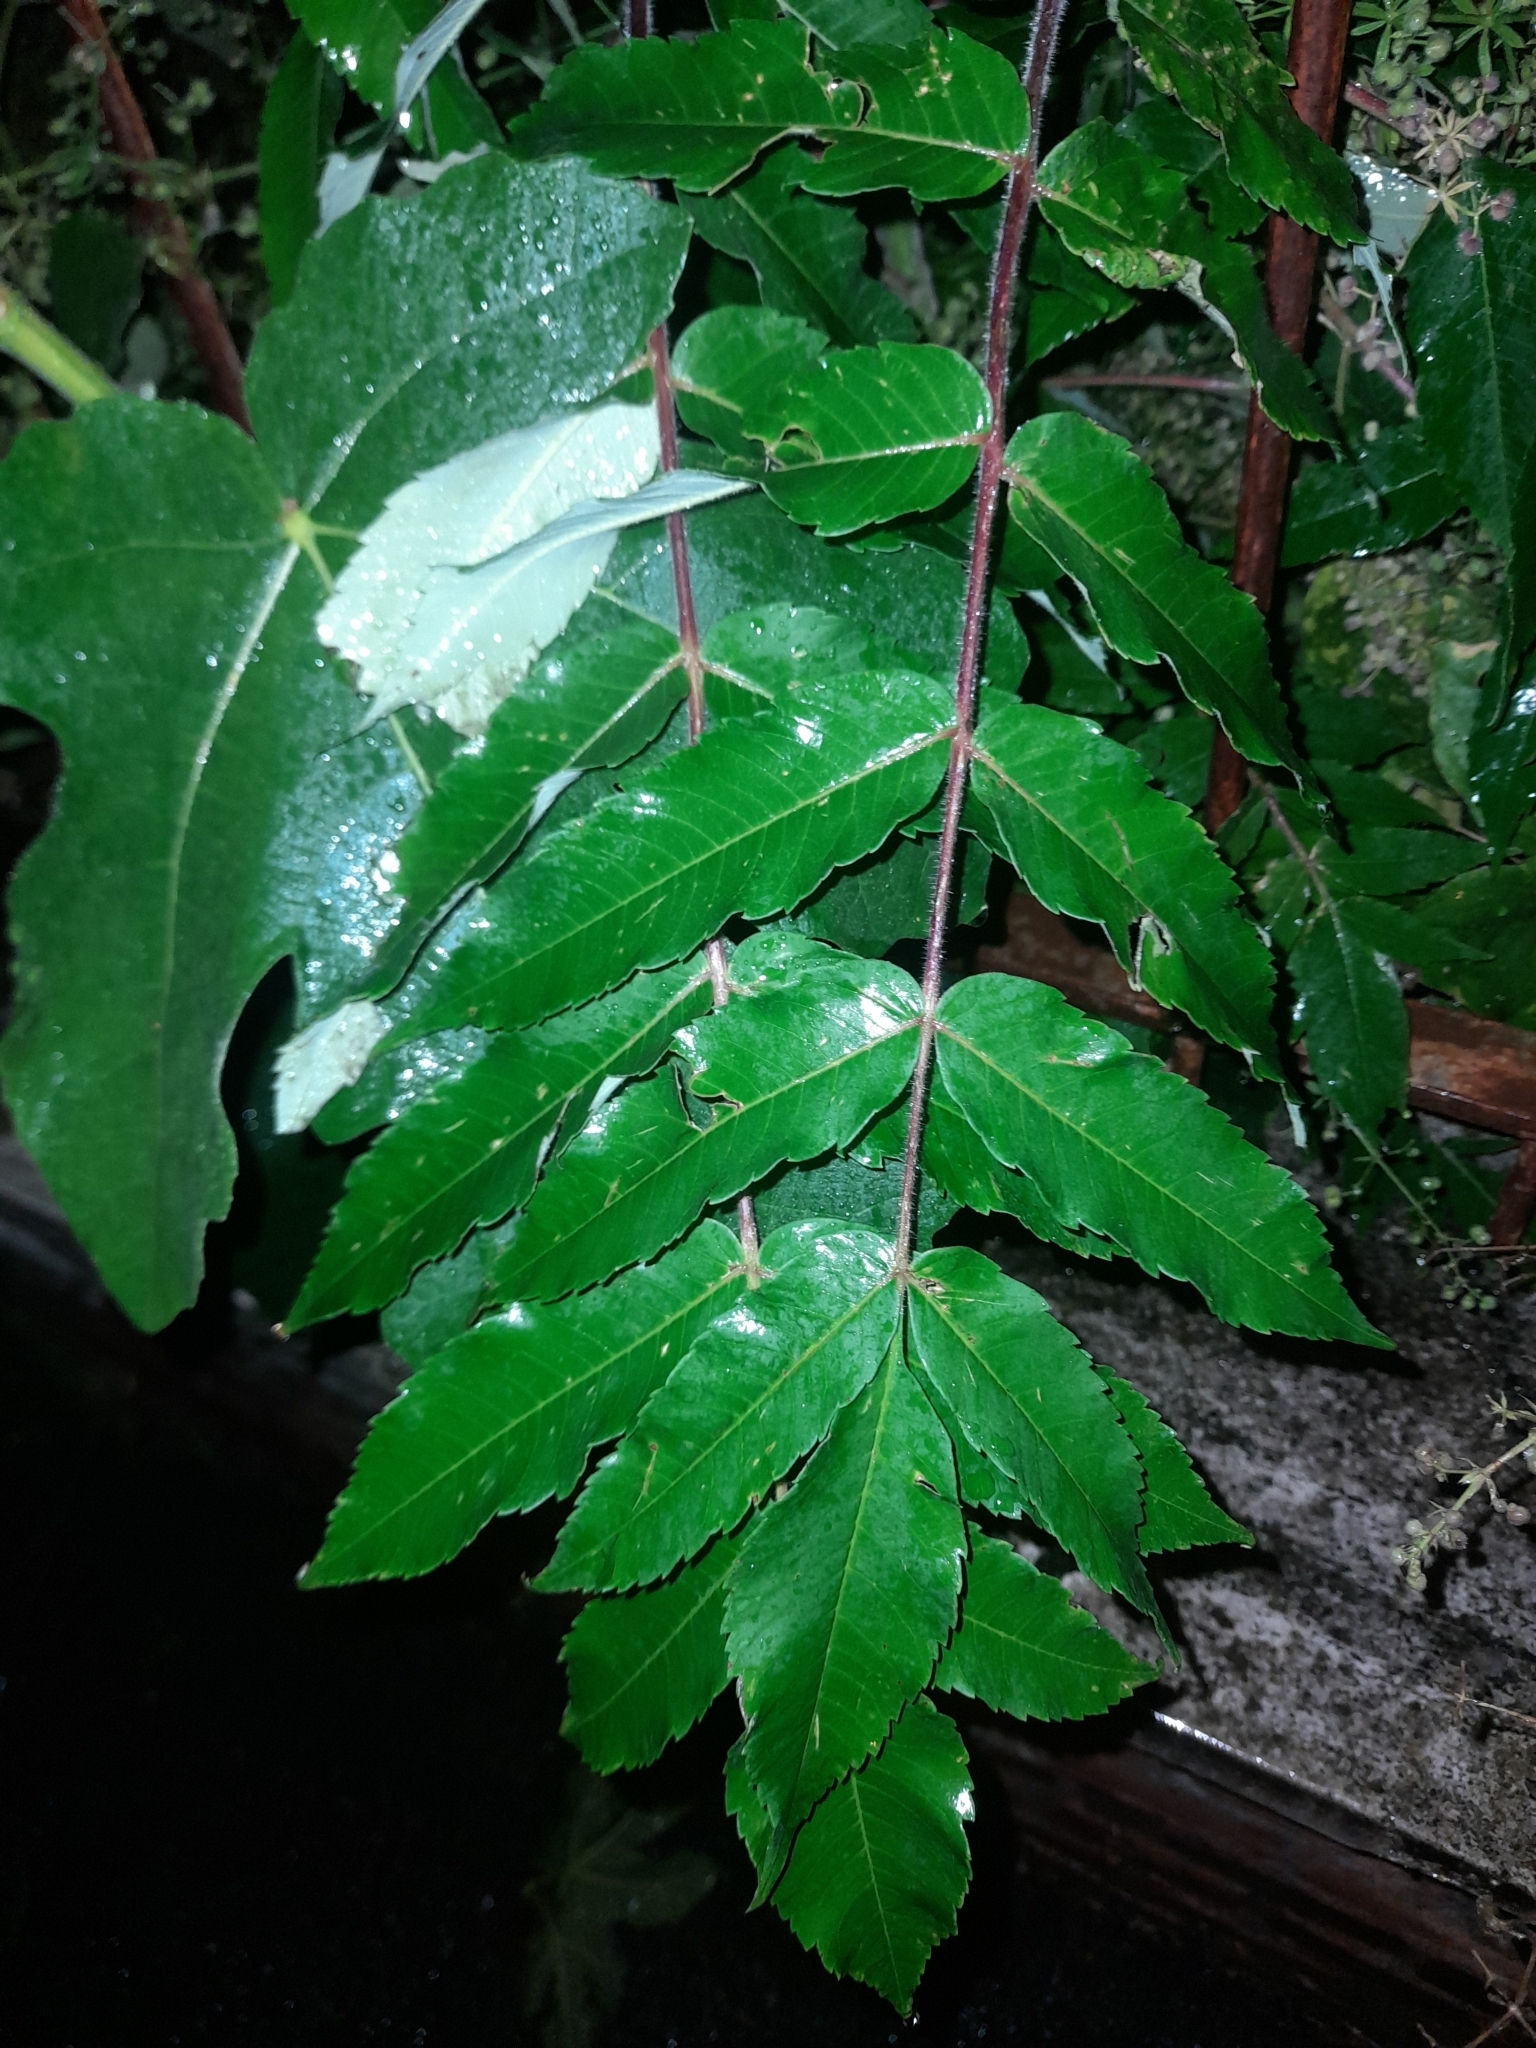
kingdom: Plantae
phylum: Tracheophyta
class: Magnoliopsida
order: Sapindales
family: Anacardiaceae
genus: Rhus
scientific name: Rhus typhina
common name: Staghorn sumac
